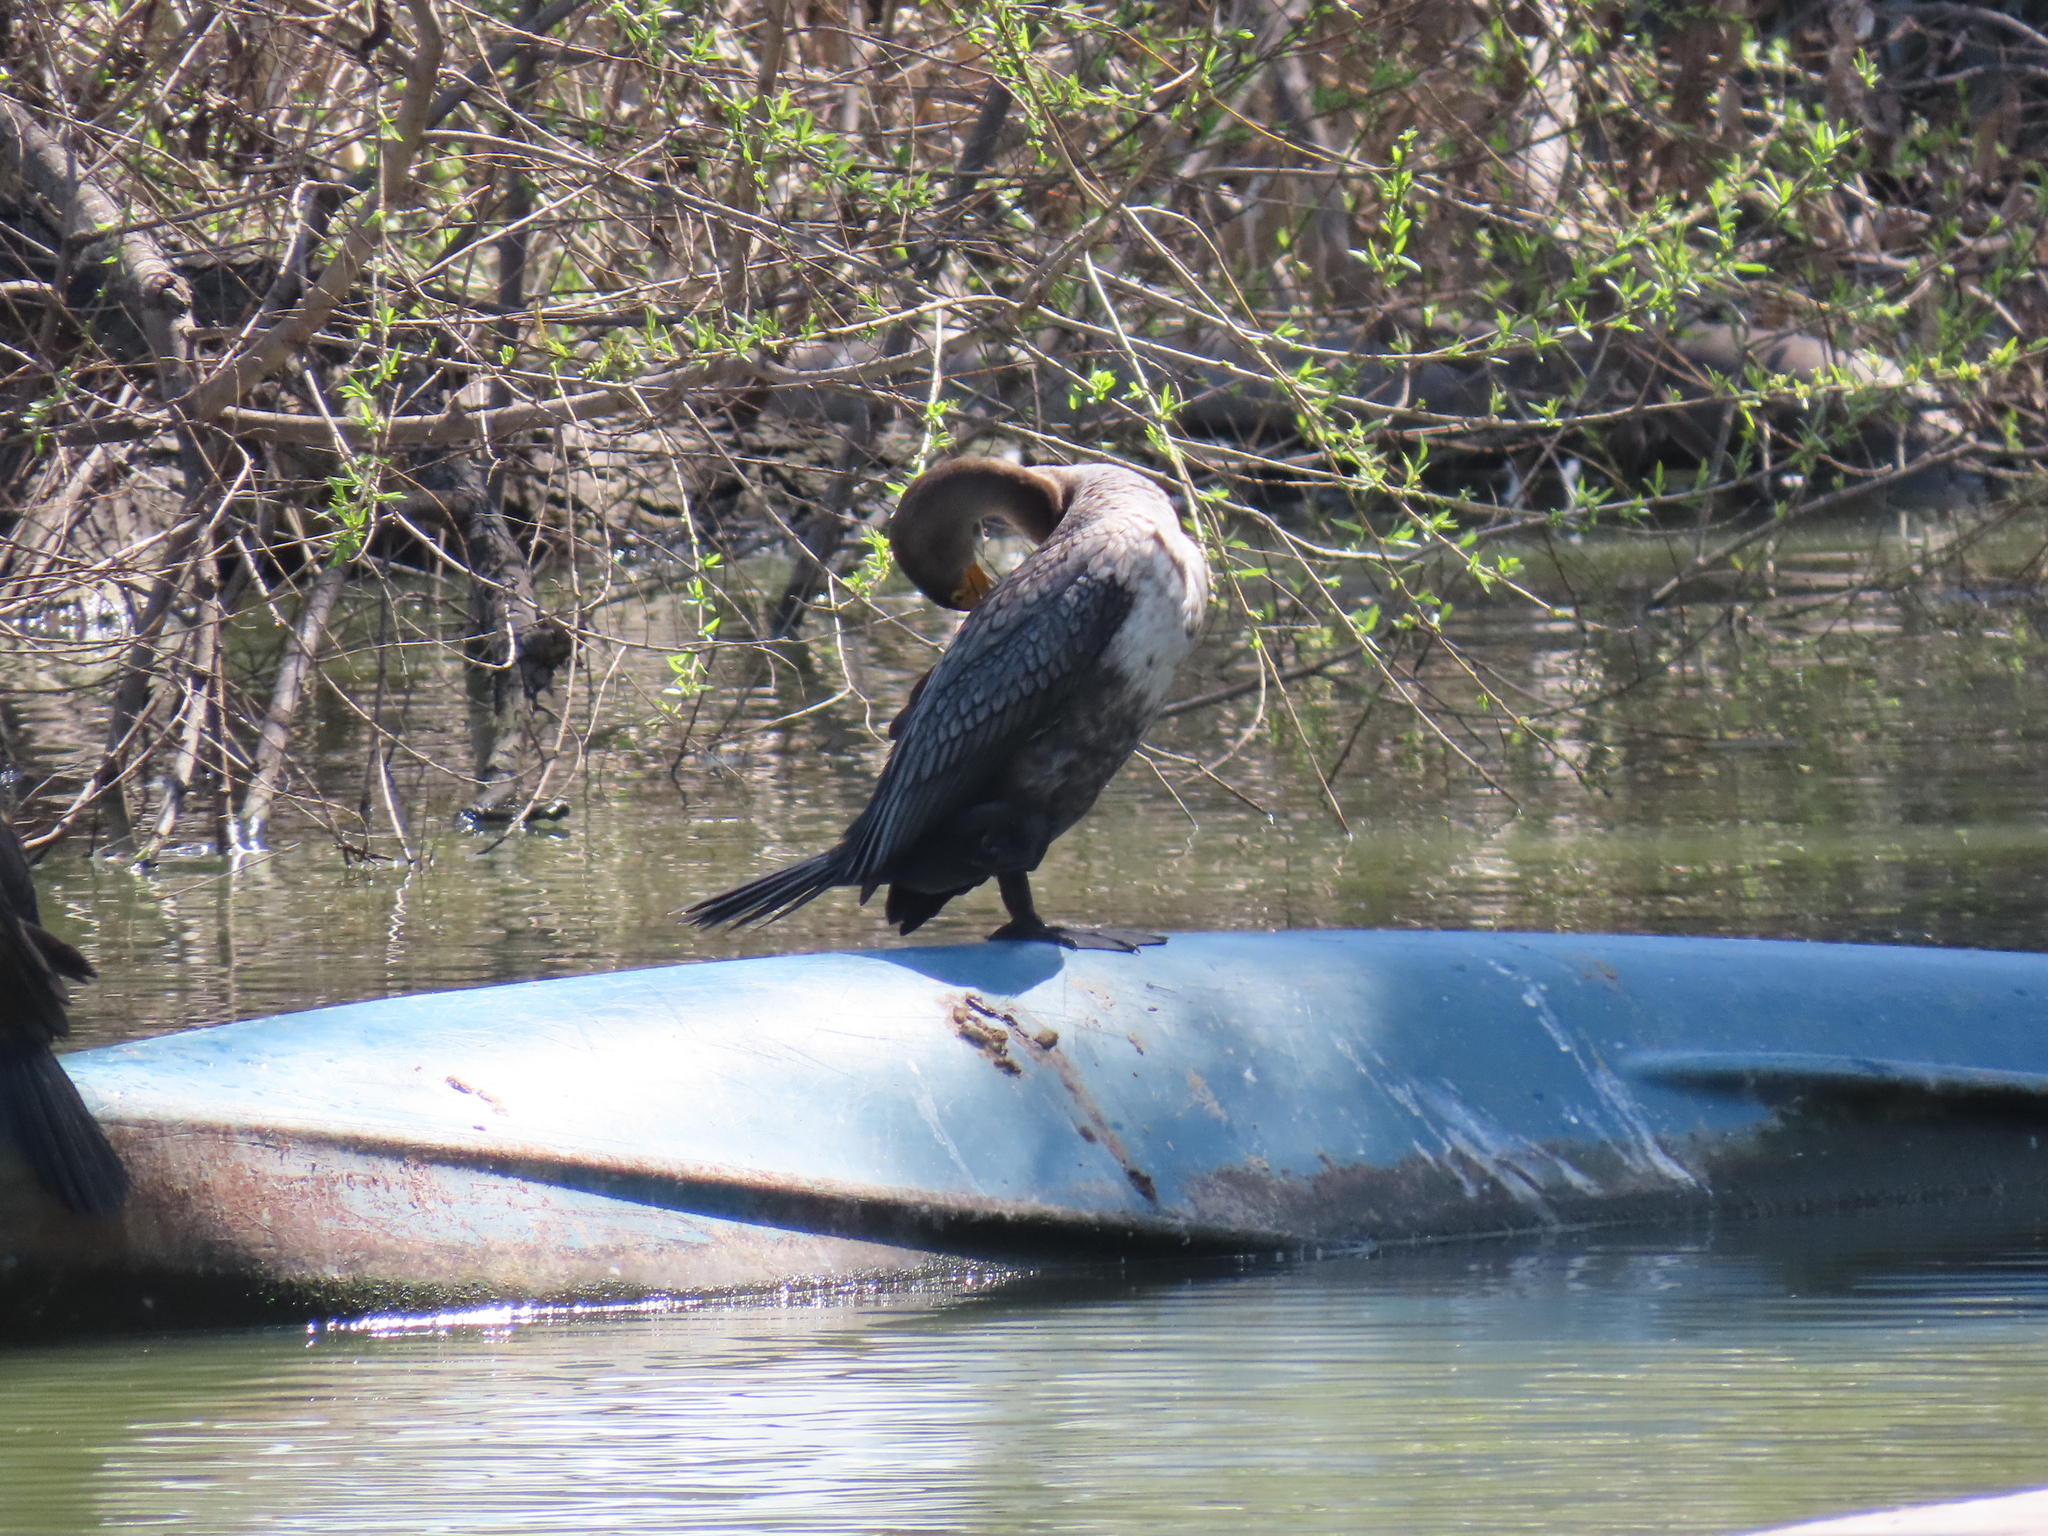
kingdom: Animalia
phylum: Chordata
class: Aves
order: Suliformes
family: Phalacrocoracidae
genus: Phalacrocorax
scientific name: Phalacrocorax auritus
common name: Double-crested cormorant
